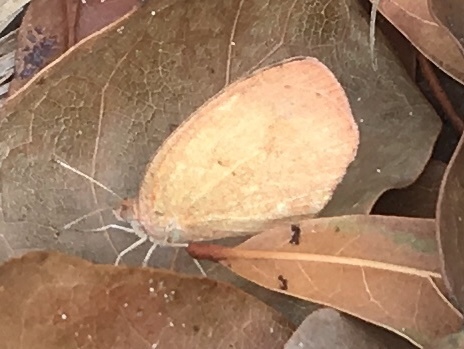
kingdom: Animalia
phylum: Arthropoda
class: Insecta
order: Lepidoptera
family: Pieridae
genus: Eurema
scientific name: Eurema daira
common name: Barred sulphur
